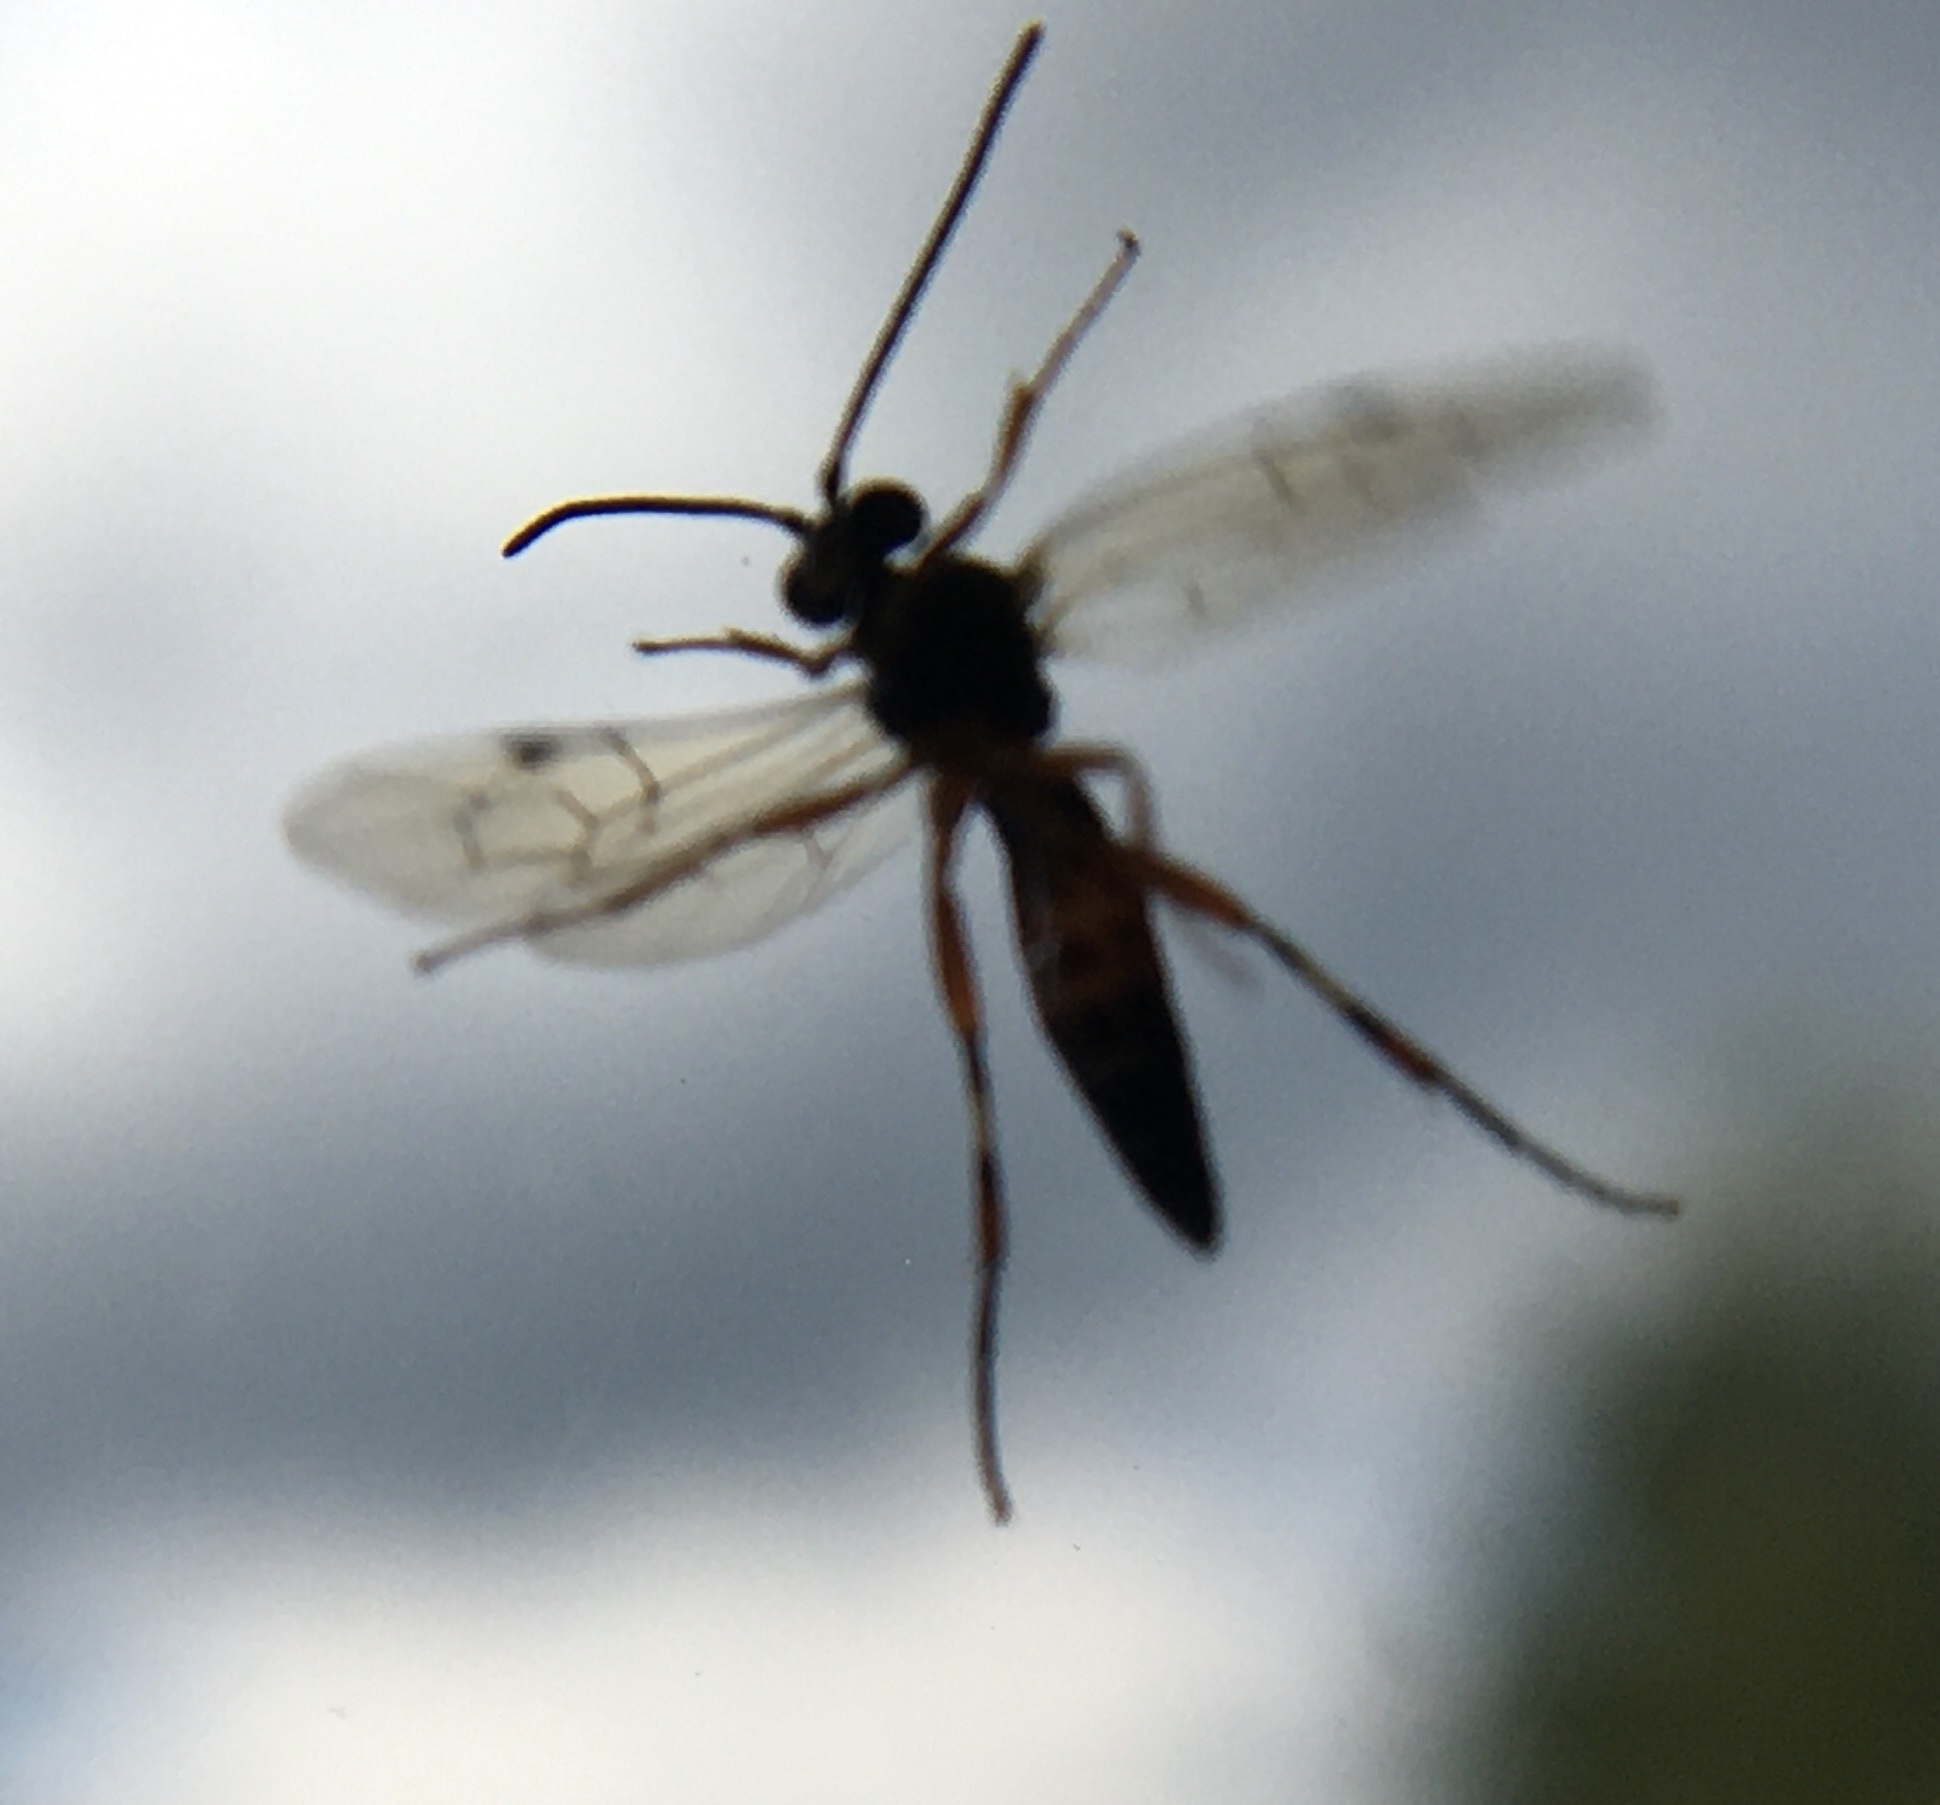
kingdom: Animalia
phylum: Arthropoda
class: Insecta
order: Hymenoptera
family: Ichneumonidae
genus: Diplazon
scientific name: Diplazon laetatorius
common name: Parasitoid wasp
